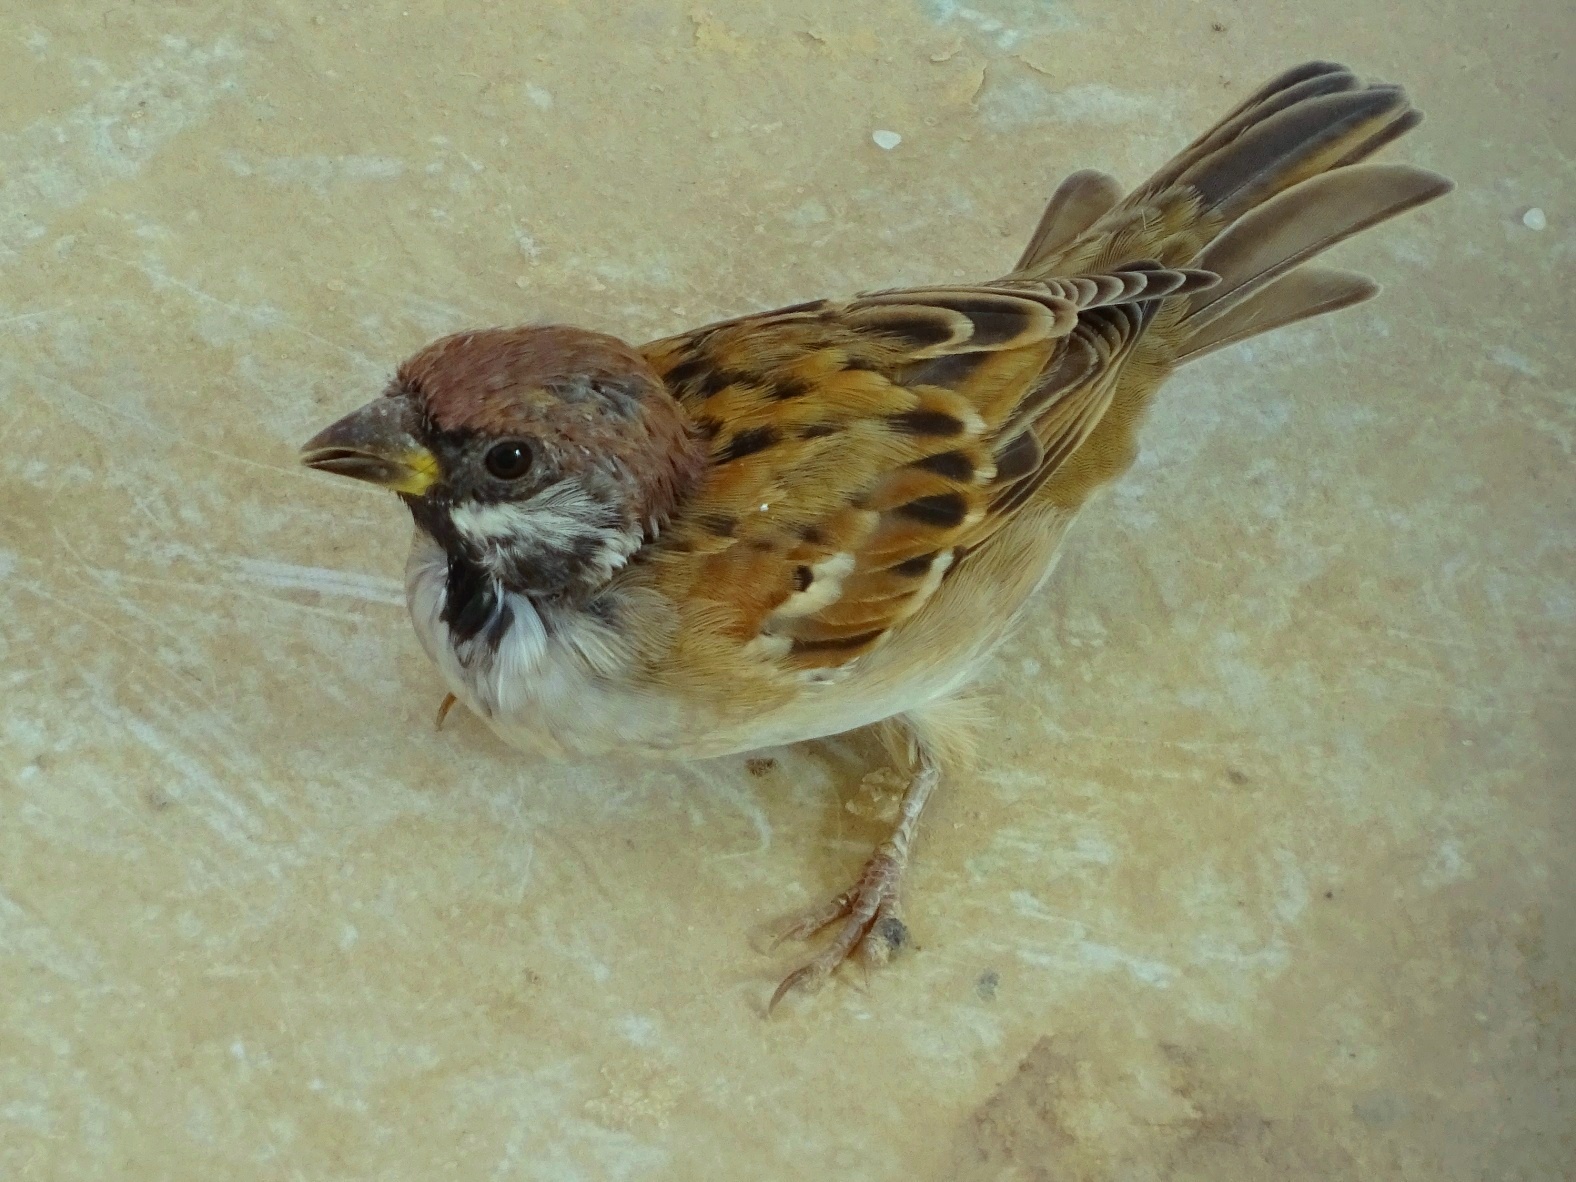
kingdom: Animalia
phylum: Chordata
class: Aves
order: Passeriformes
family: Passeridae
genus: Passer
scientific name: Passer montanus
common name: Eurasian tree sparrow
